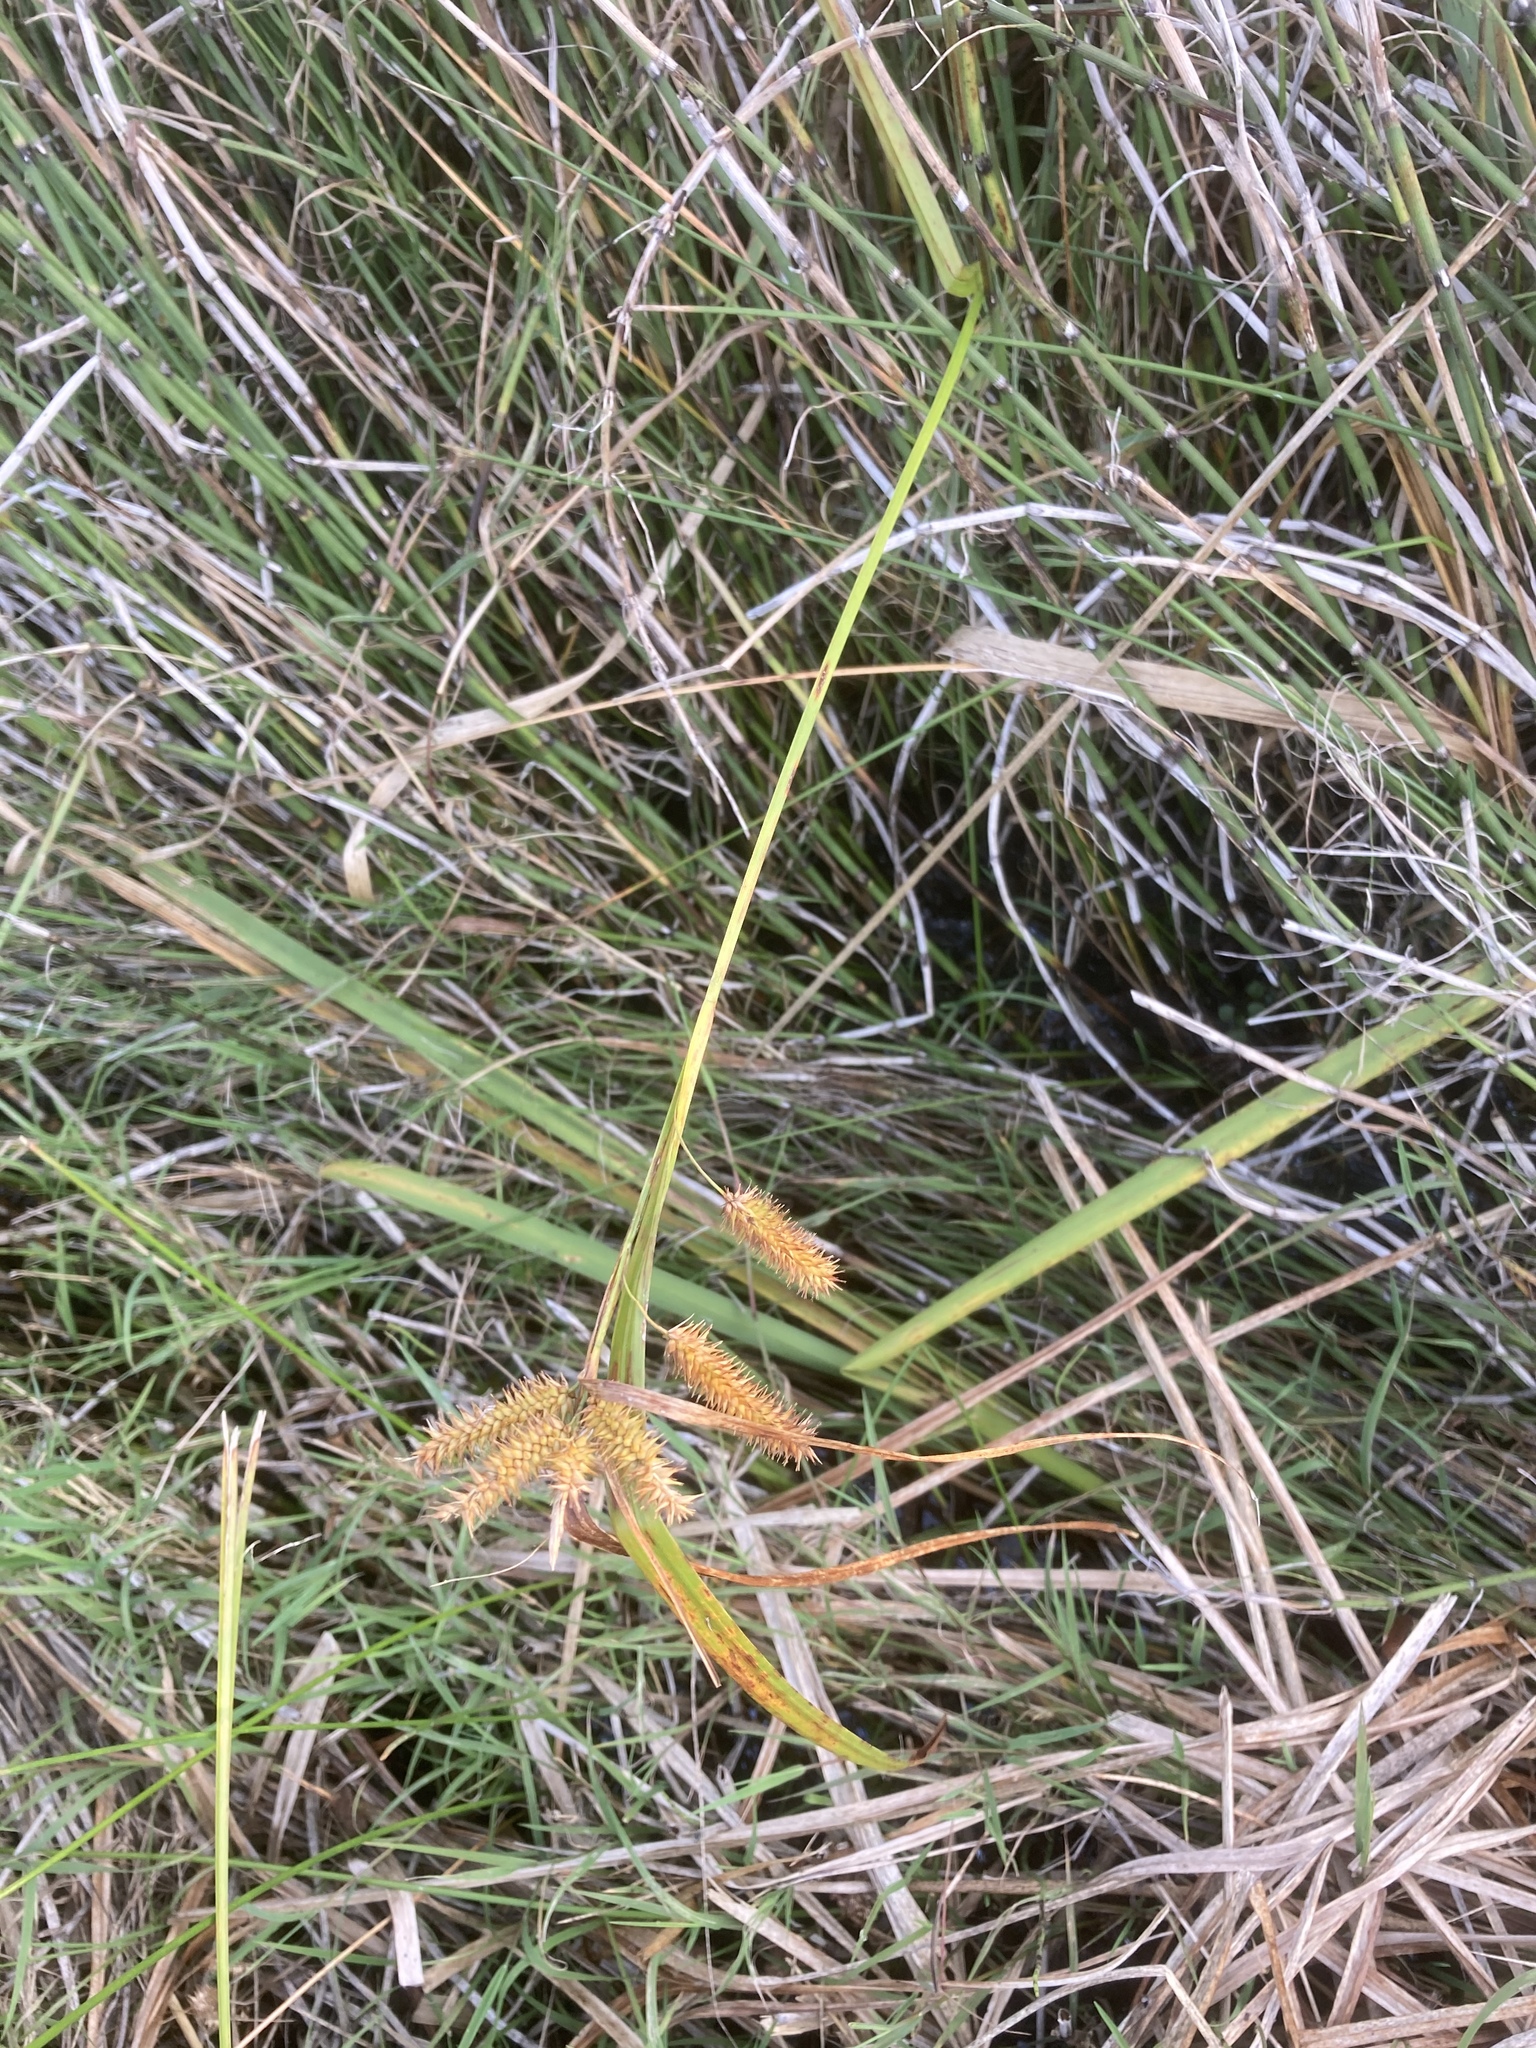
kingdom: Plantae
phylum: Tracheophyta
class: Liliopsida
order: Poales
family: Cyperaceae
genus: Carex
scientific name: Carex pseudocyperus
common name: Cyperus sedge
